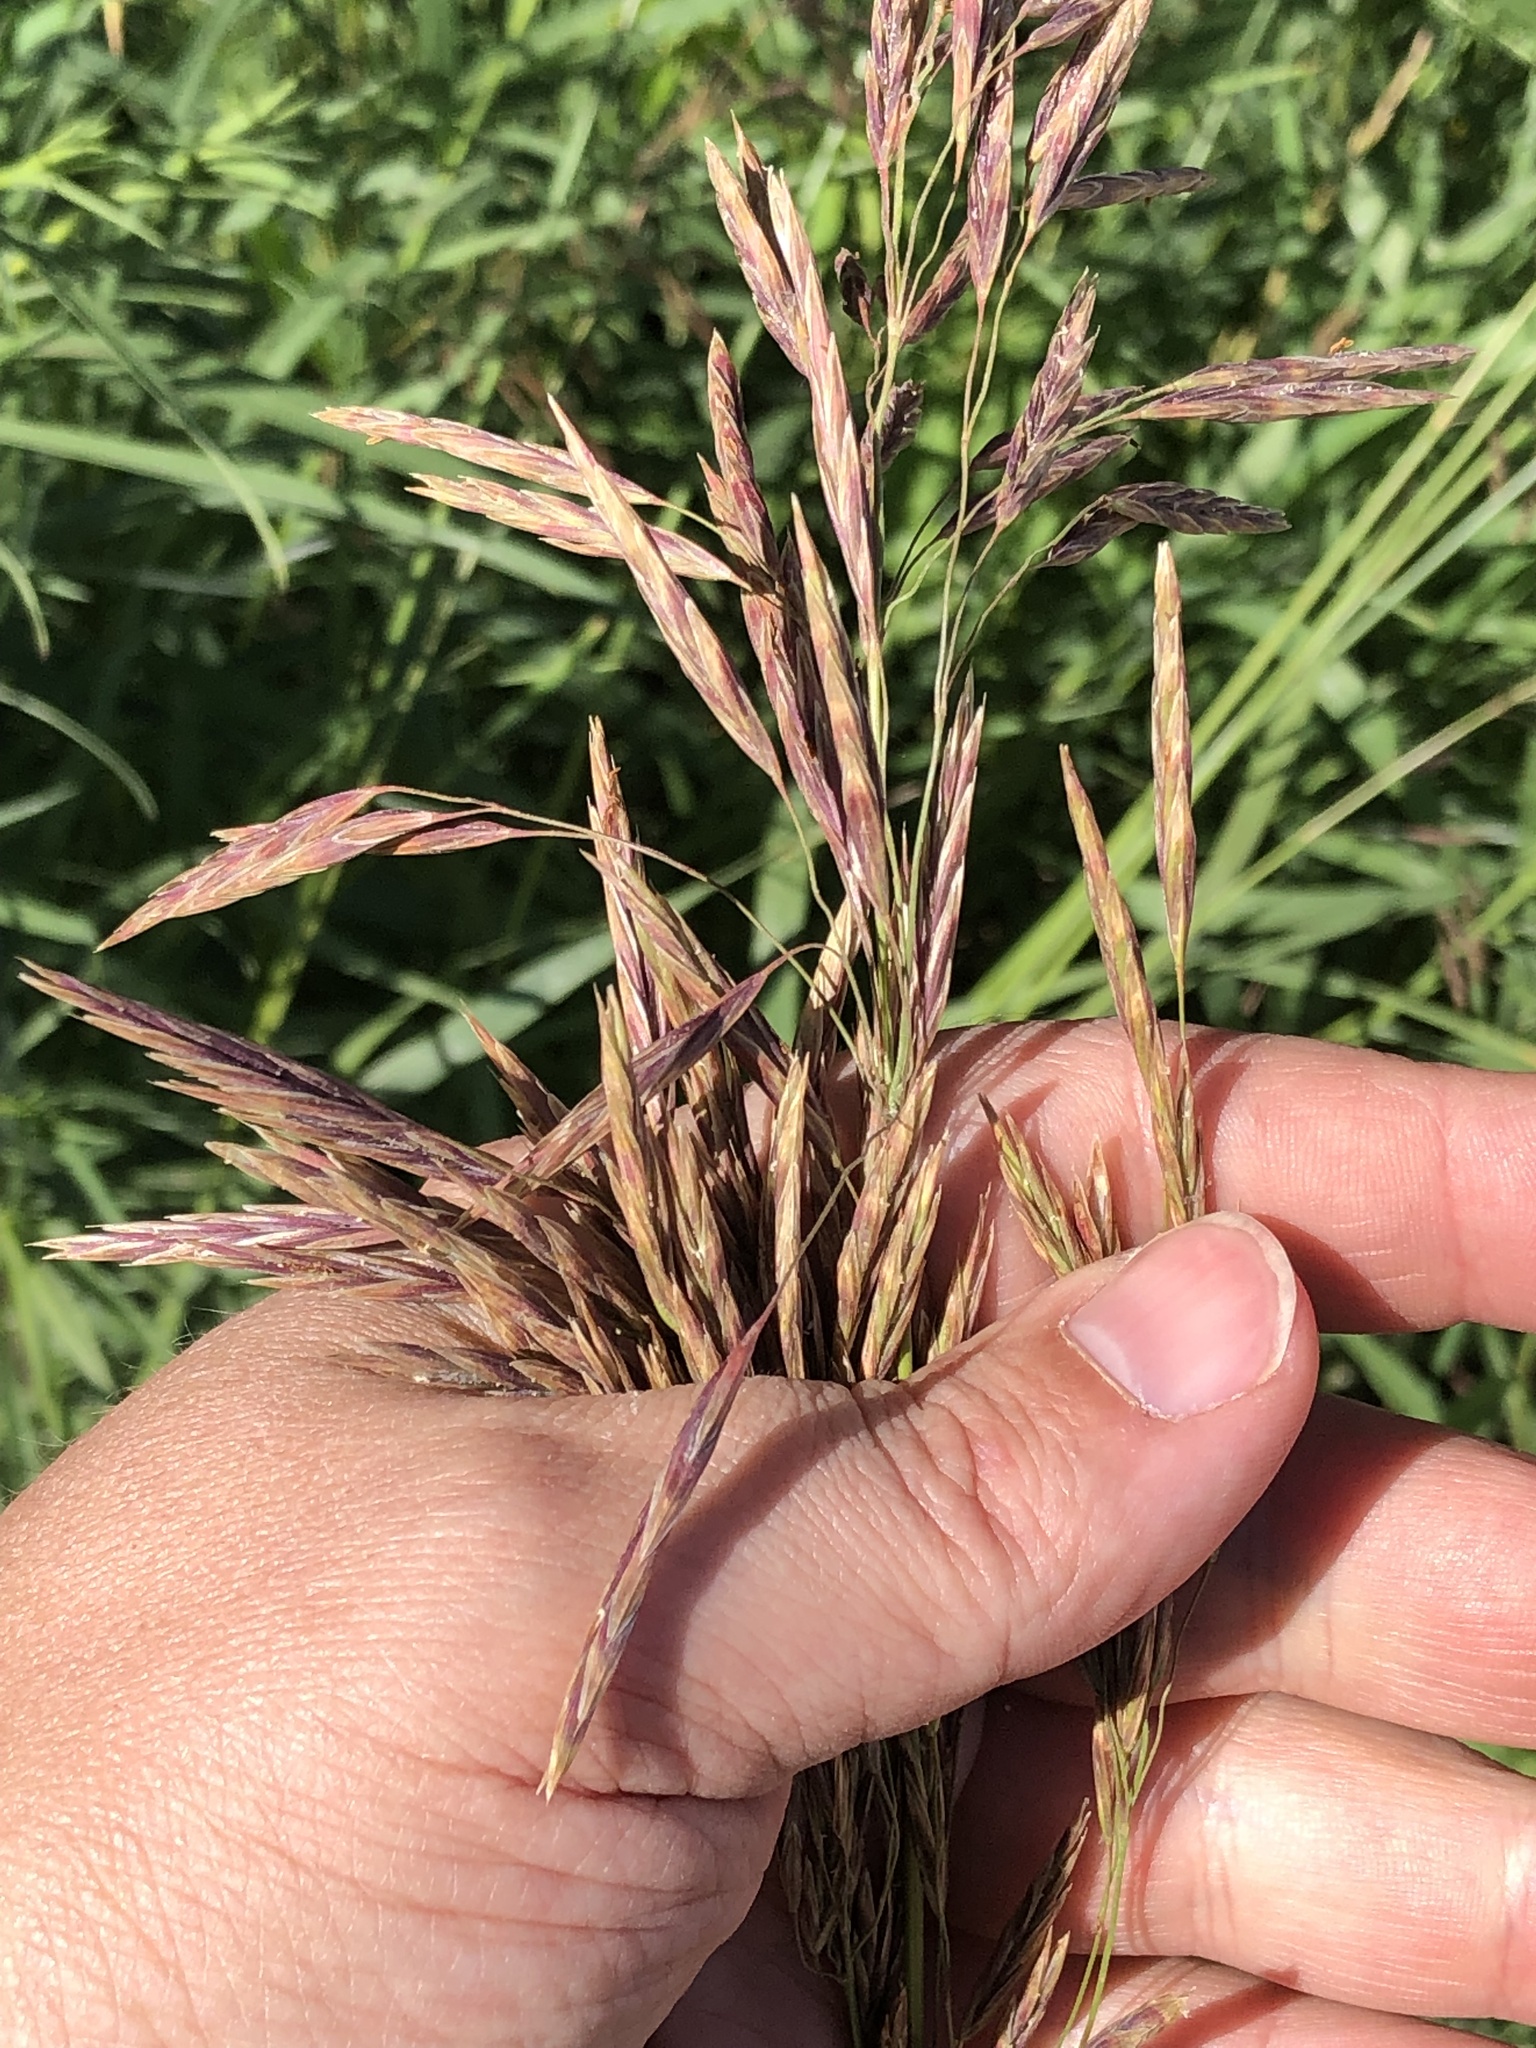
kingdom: Plantae
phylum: Tracheophyta
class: Liliopsida
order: Poales
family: Poaceae
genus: Bromus
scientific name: Bromus inermis
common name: Smooth brome
